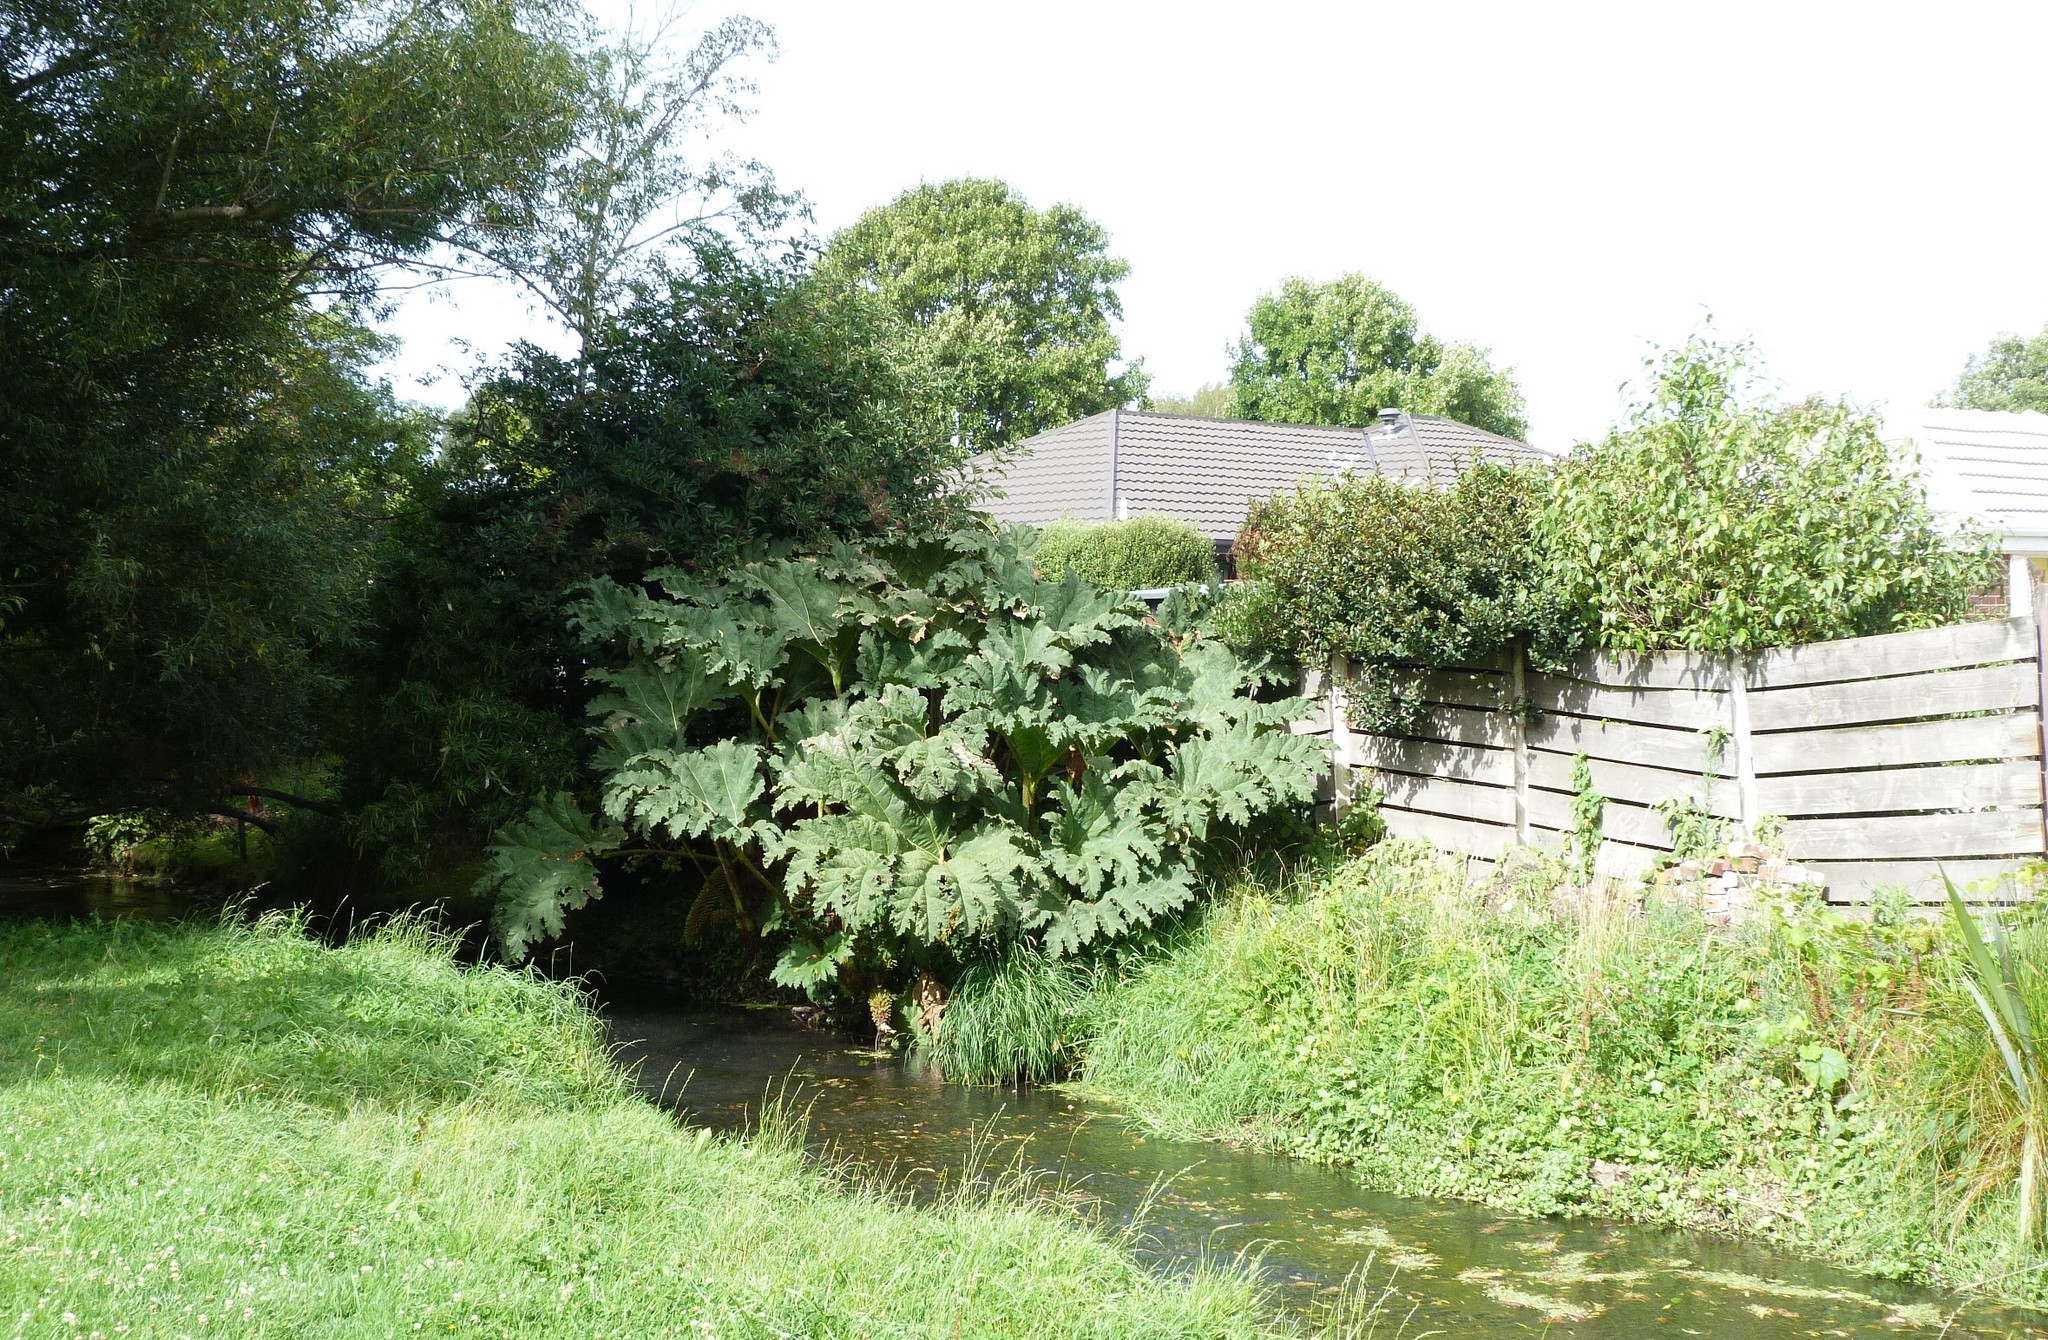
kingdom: Plantae
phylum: Tracheophyta
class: Magnoliopsida
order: Gunnerales
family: Gunneraceae
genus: Gunnera
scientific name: Gunnera tinctoria
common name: Giant-rhubarb
